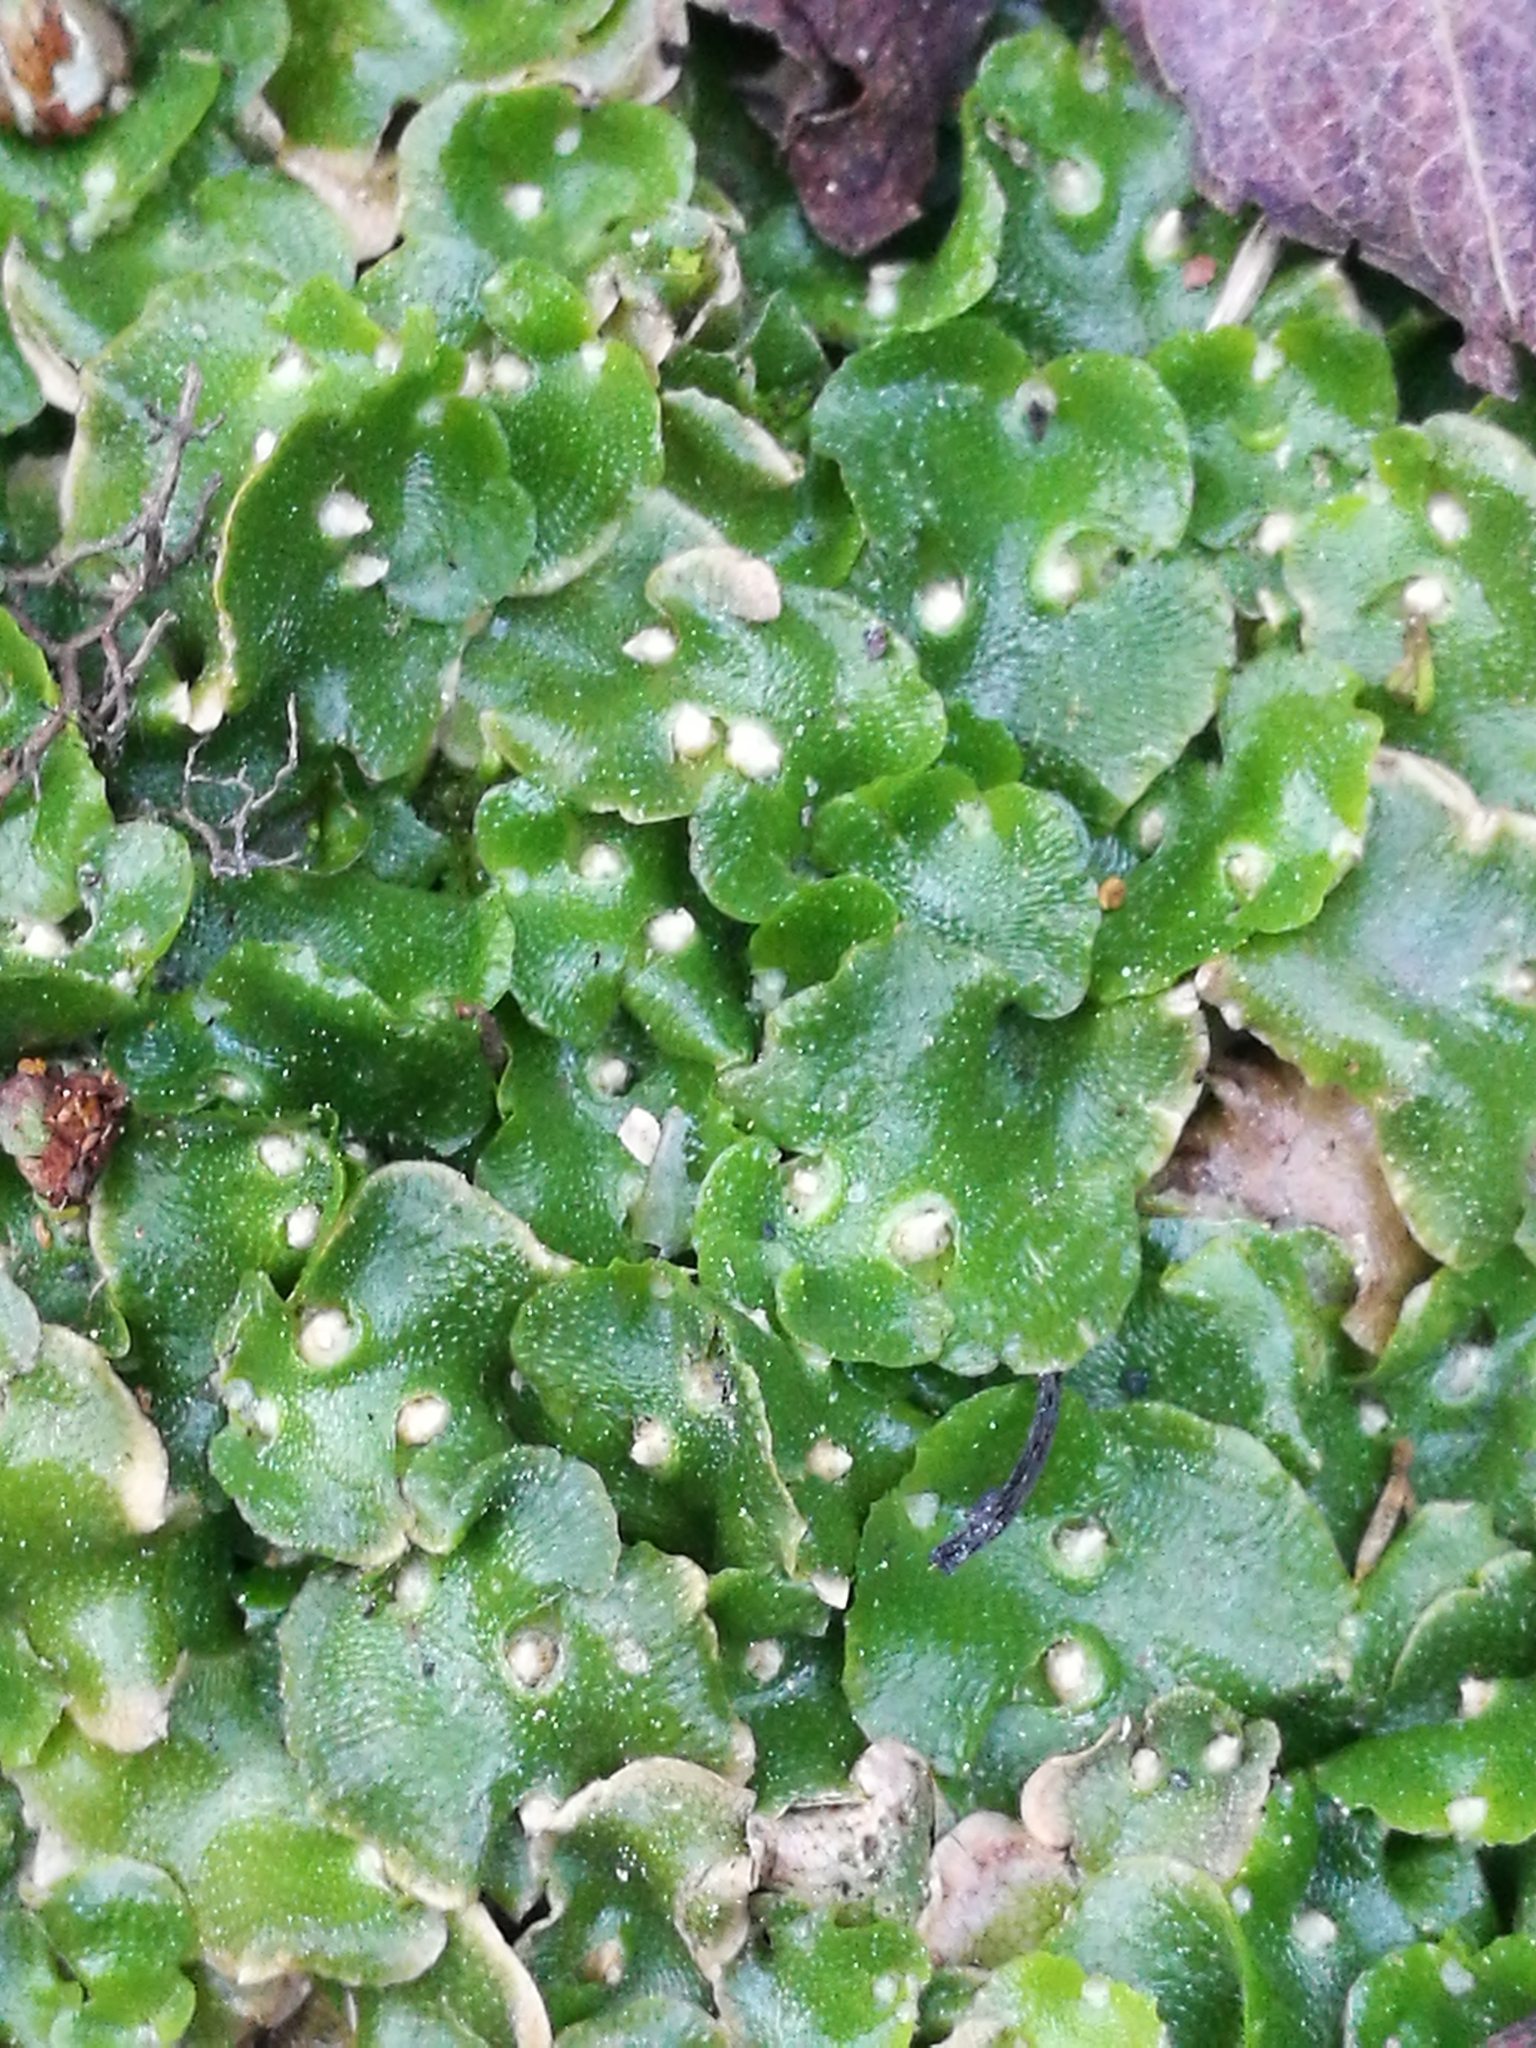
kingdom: Plantae
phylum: Marchantiophyta
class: Marchantiopsida
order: Lunulariales
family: Lunulariaceae
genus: Lunularia
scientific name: Lunularia cruciata
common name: Crescent-cup liverwort
